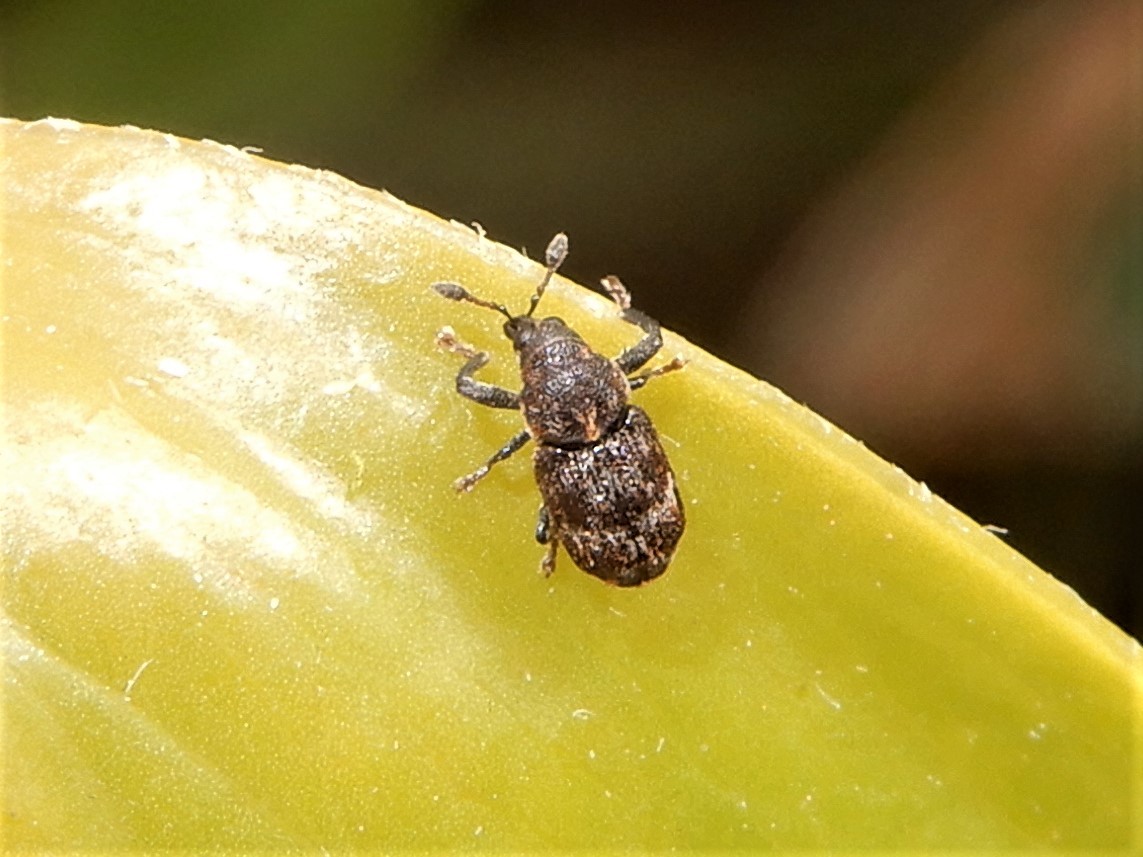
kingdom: Animalia
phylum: Arthropoda
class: Insecta
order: Coleoptera
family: Curculionidae
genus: Neolaemosaccus
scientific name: Neolaemosaccus narinus
